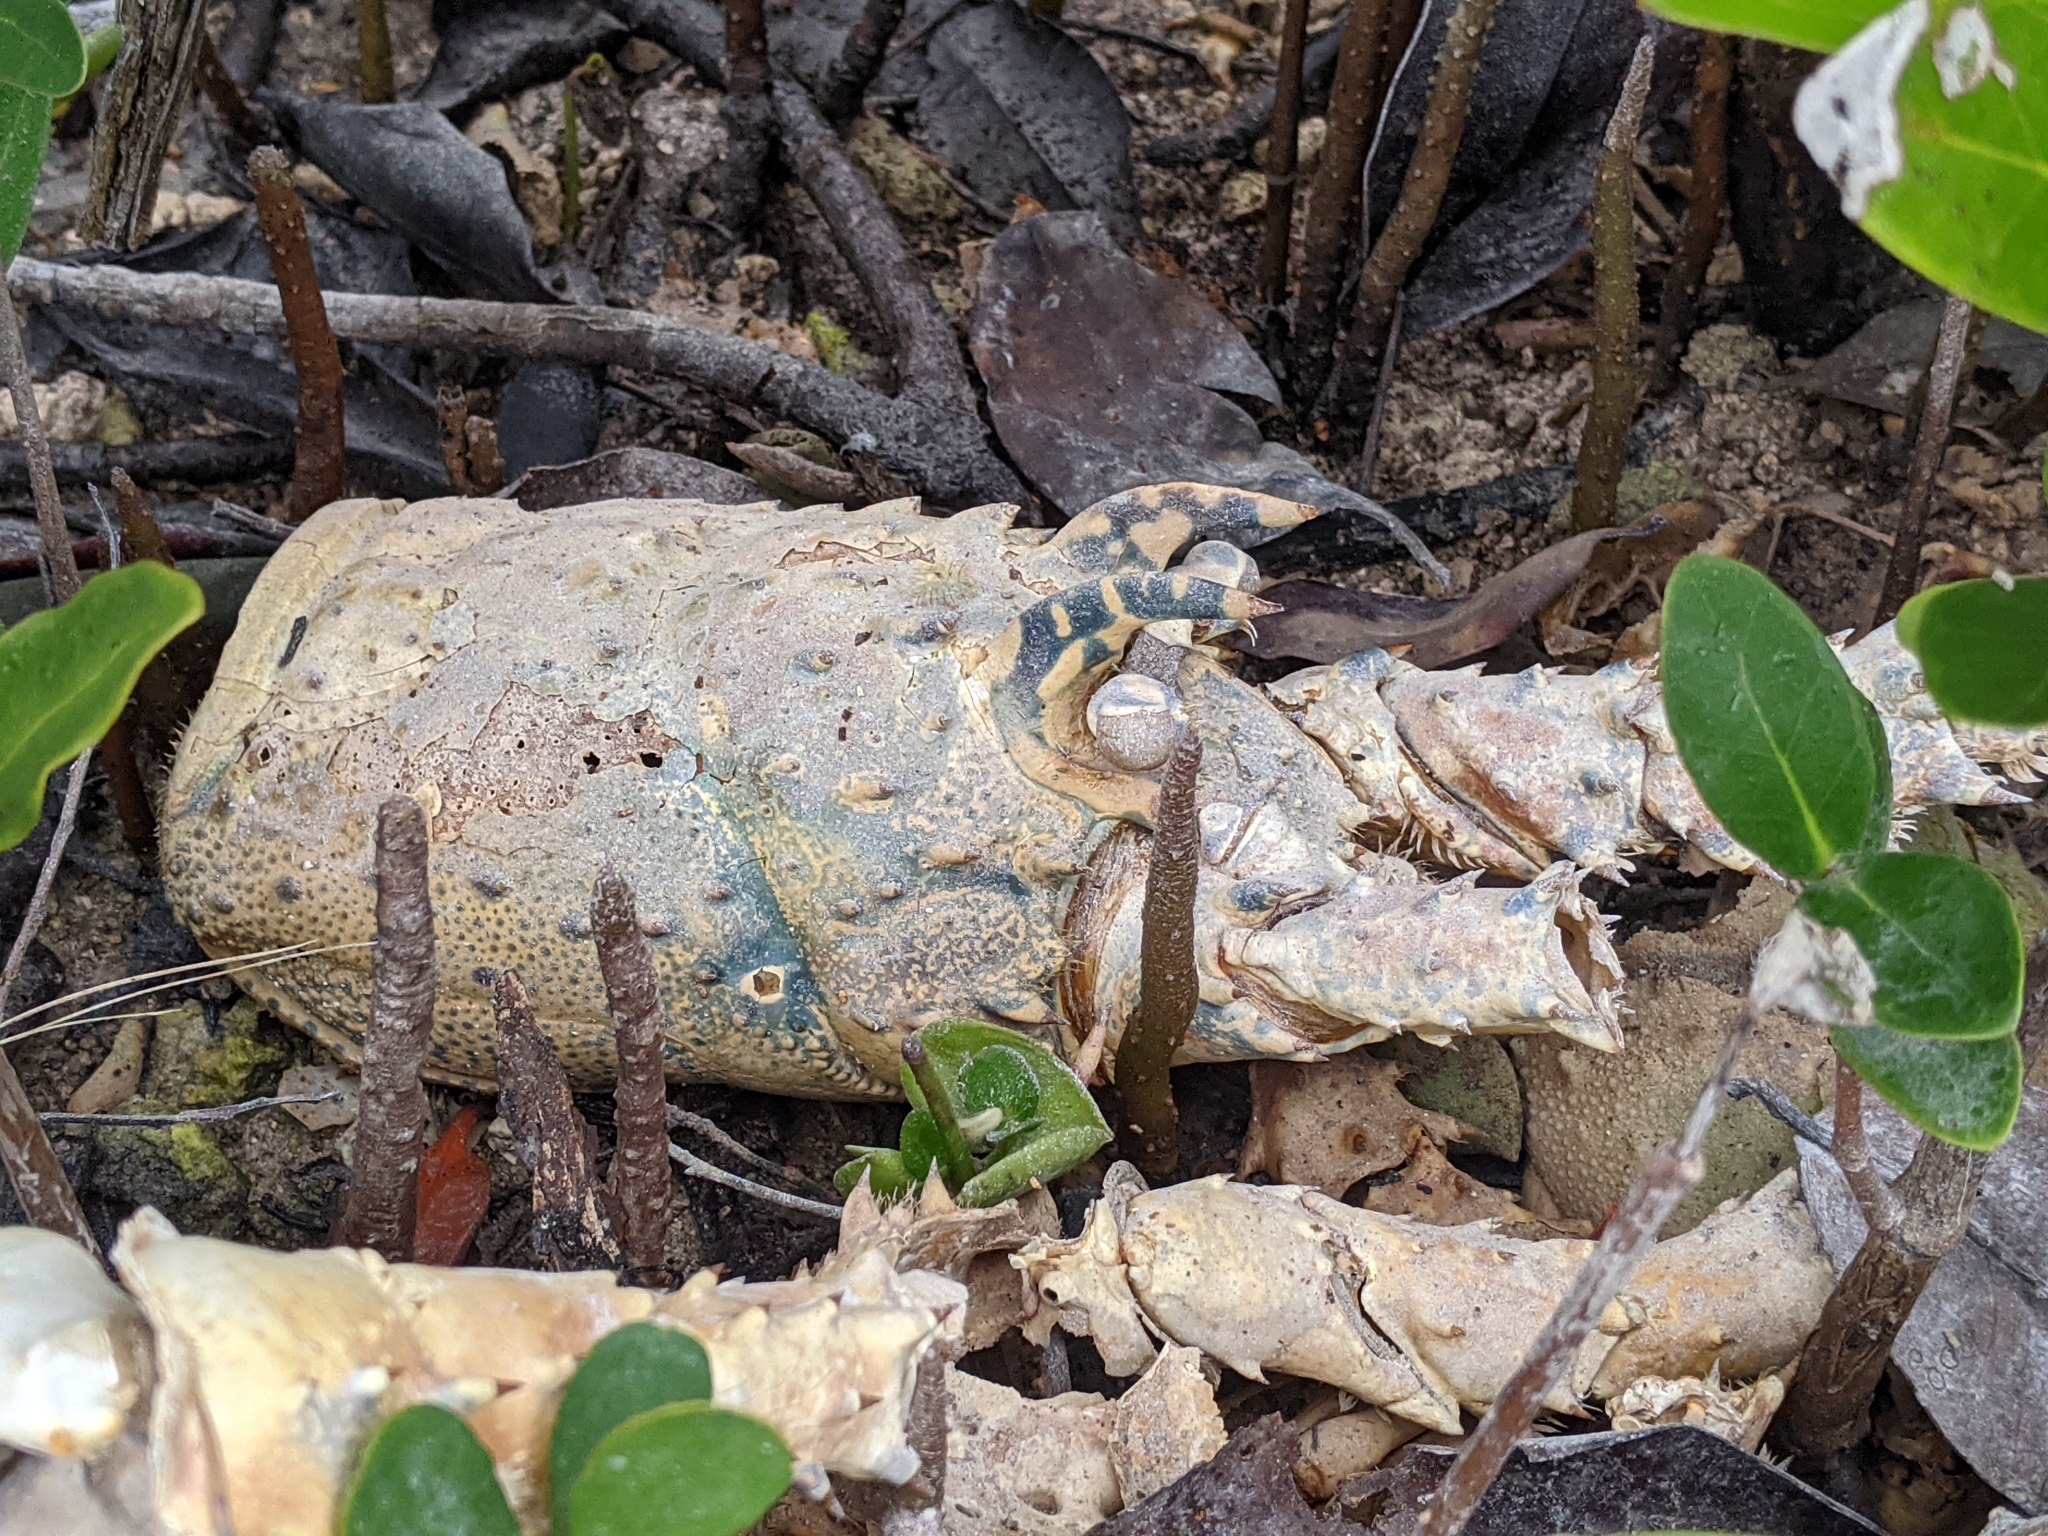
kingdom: Animalia
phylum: Arthropoda
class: Malacostraca
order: Decapoda
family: Palinuridae
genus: Panulirus
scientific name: Panulirus argus
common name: Caribbean spiny lobster
